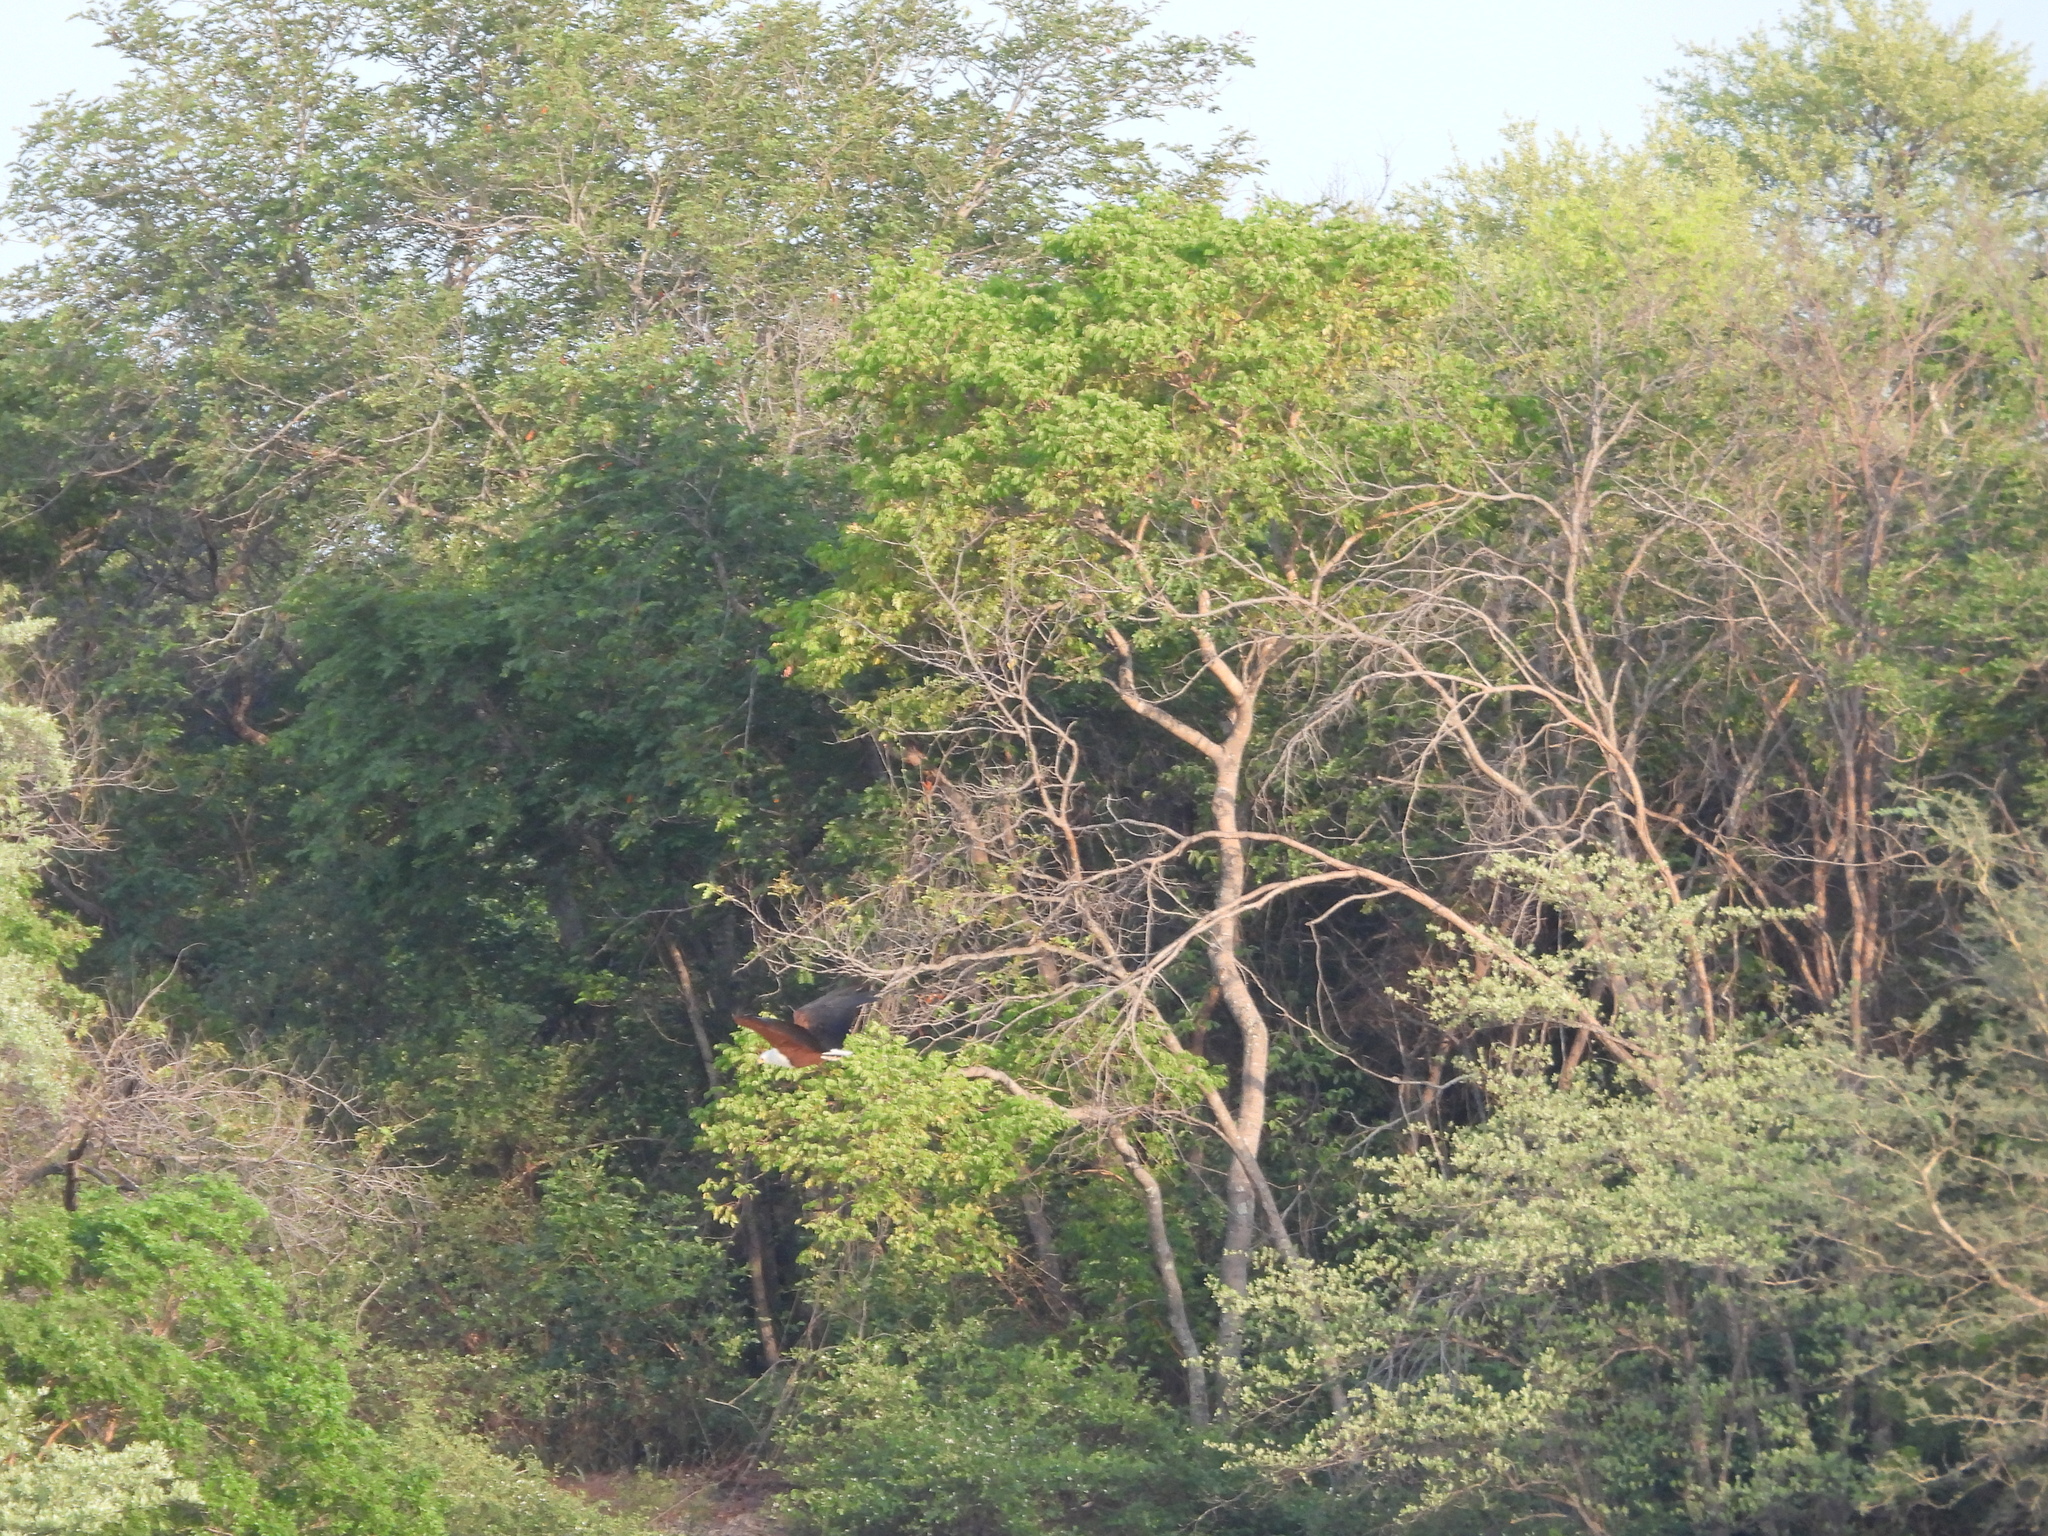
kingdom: Animalia
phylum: Chordata
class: Aves
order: Accipitriformes
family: Accipitridae
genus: Haliaeetus
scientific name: Haliaeetus vocifer
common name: African fish eagle
